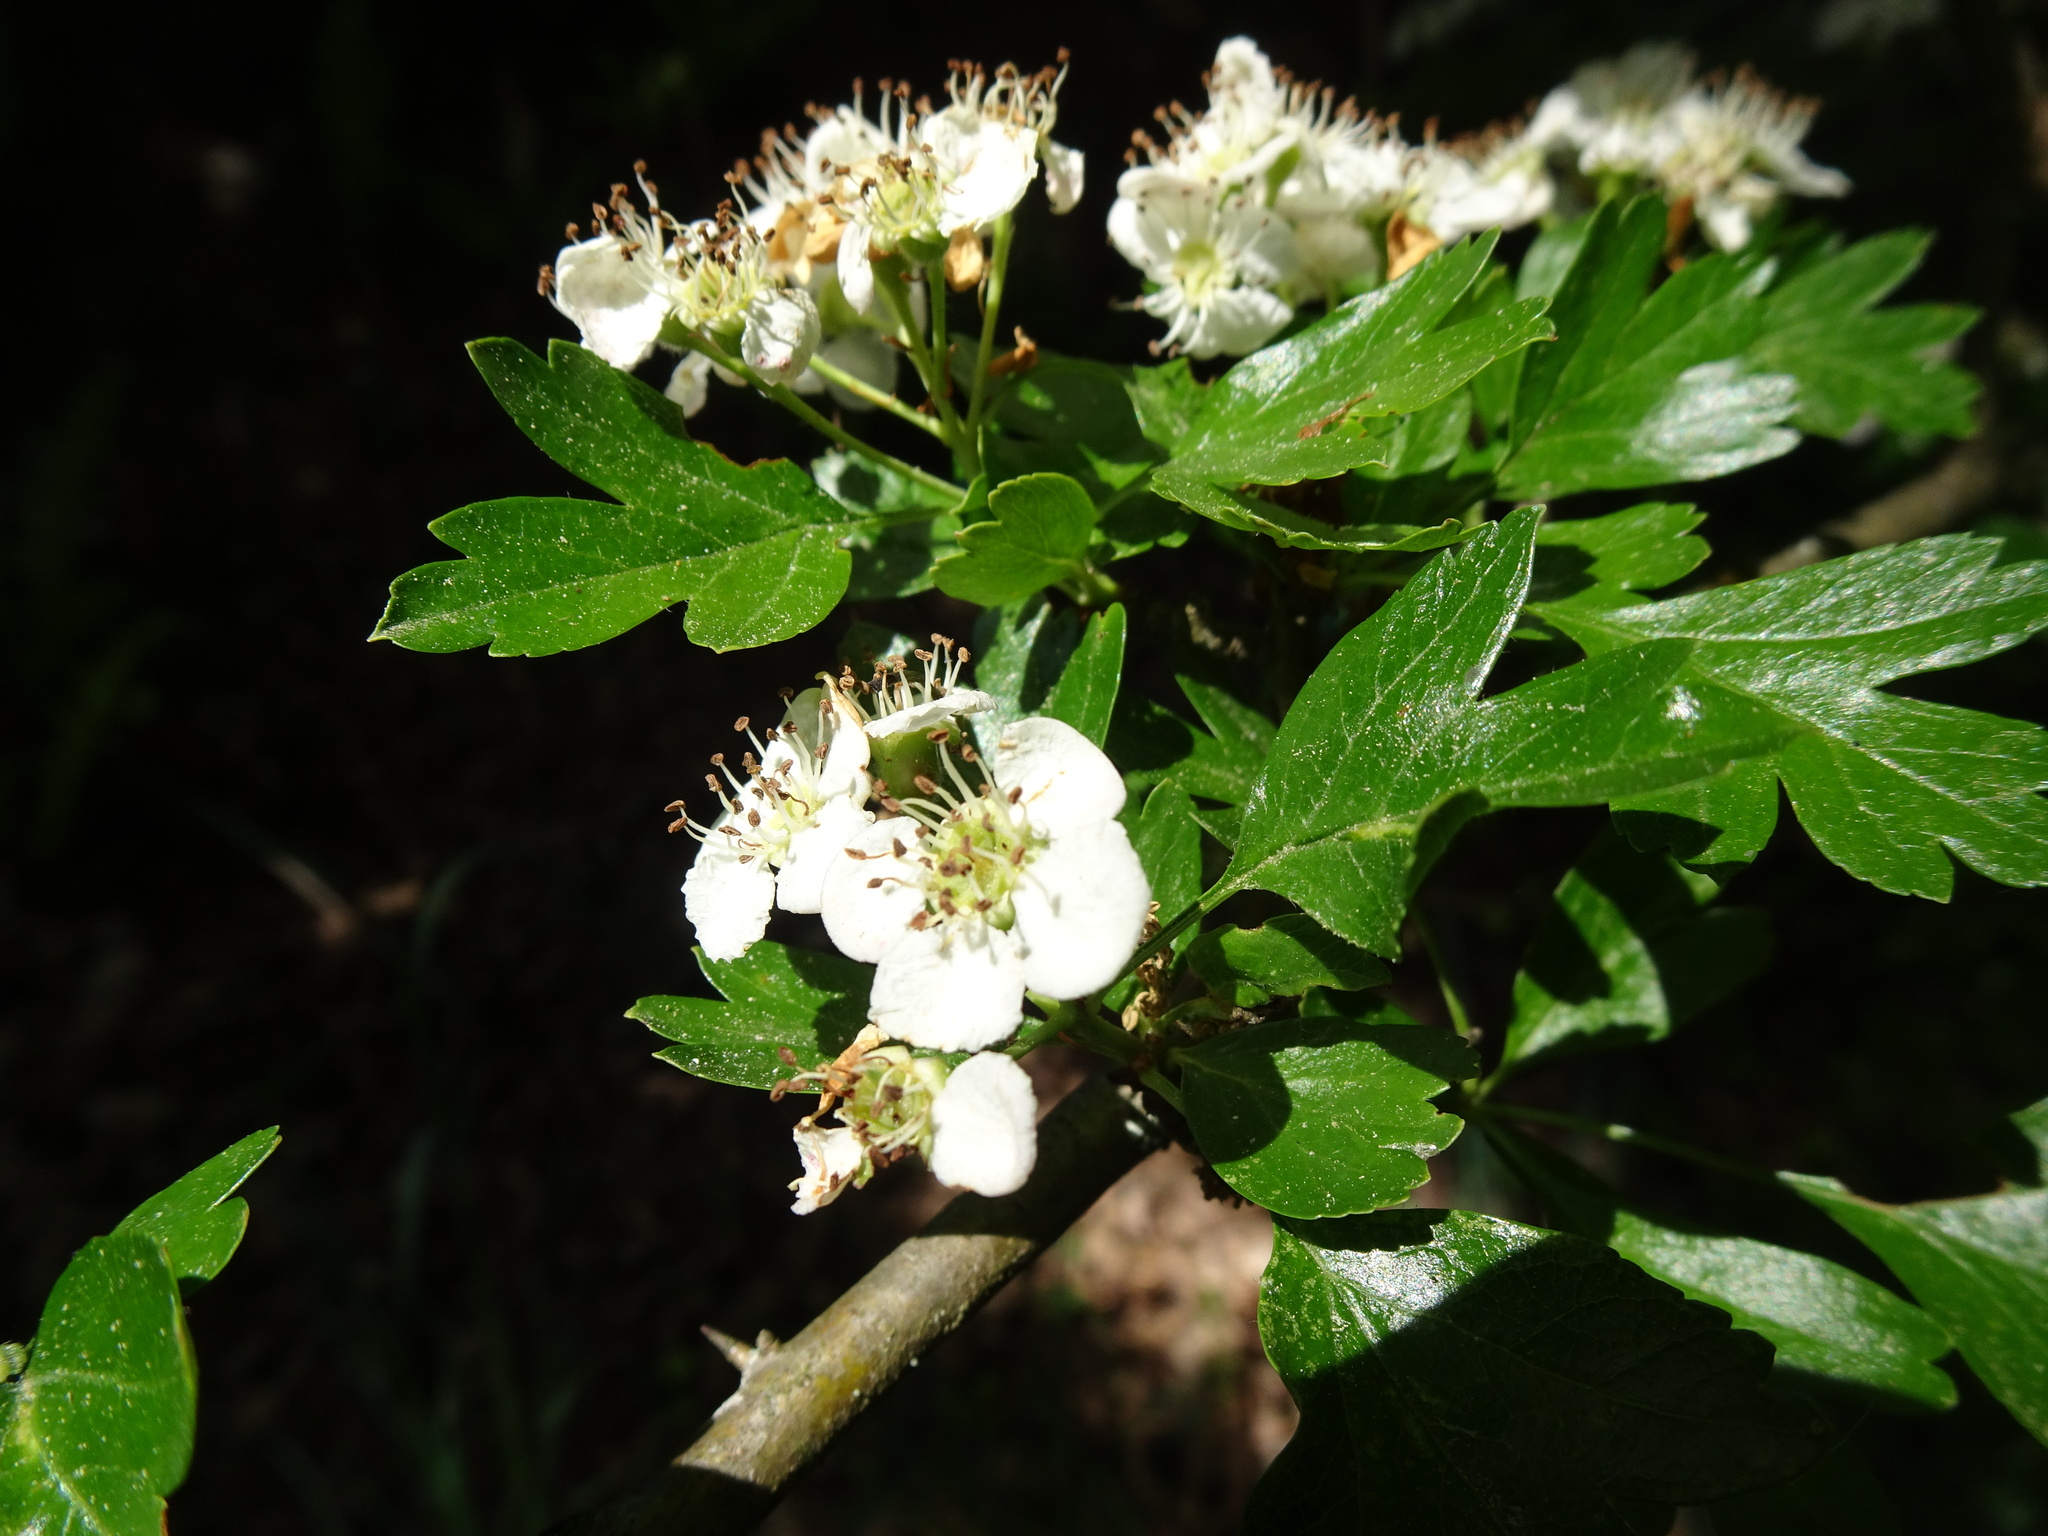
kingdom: Plantae
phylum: Tracheophyta
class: Magnoliopsida
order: Rosales
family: Rosaceae
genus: Crataegus
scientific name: Crataegus monogyna
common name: Hawthorn
